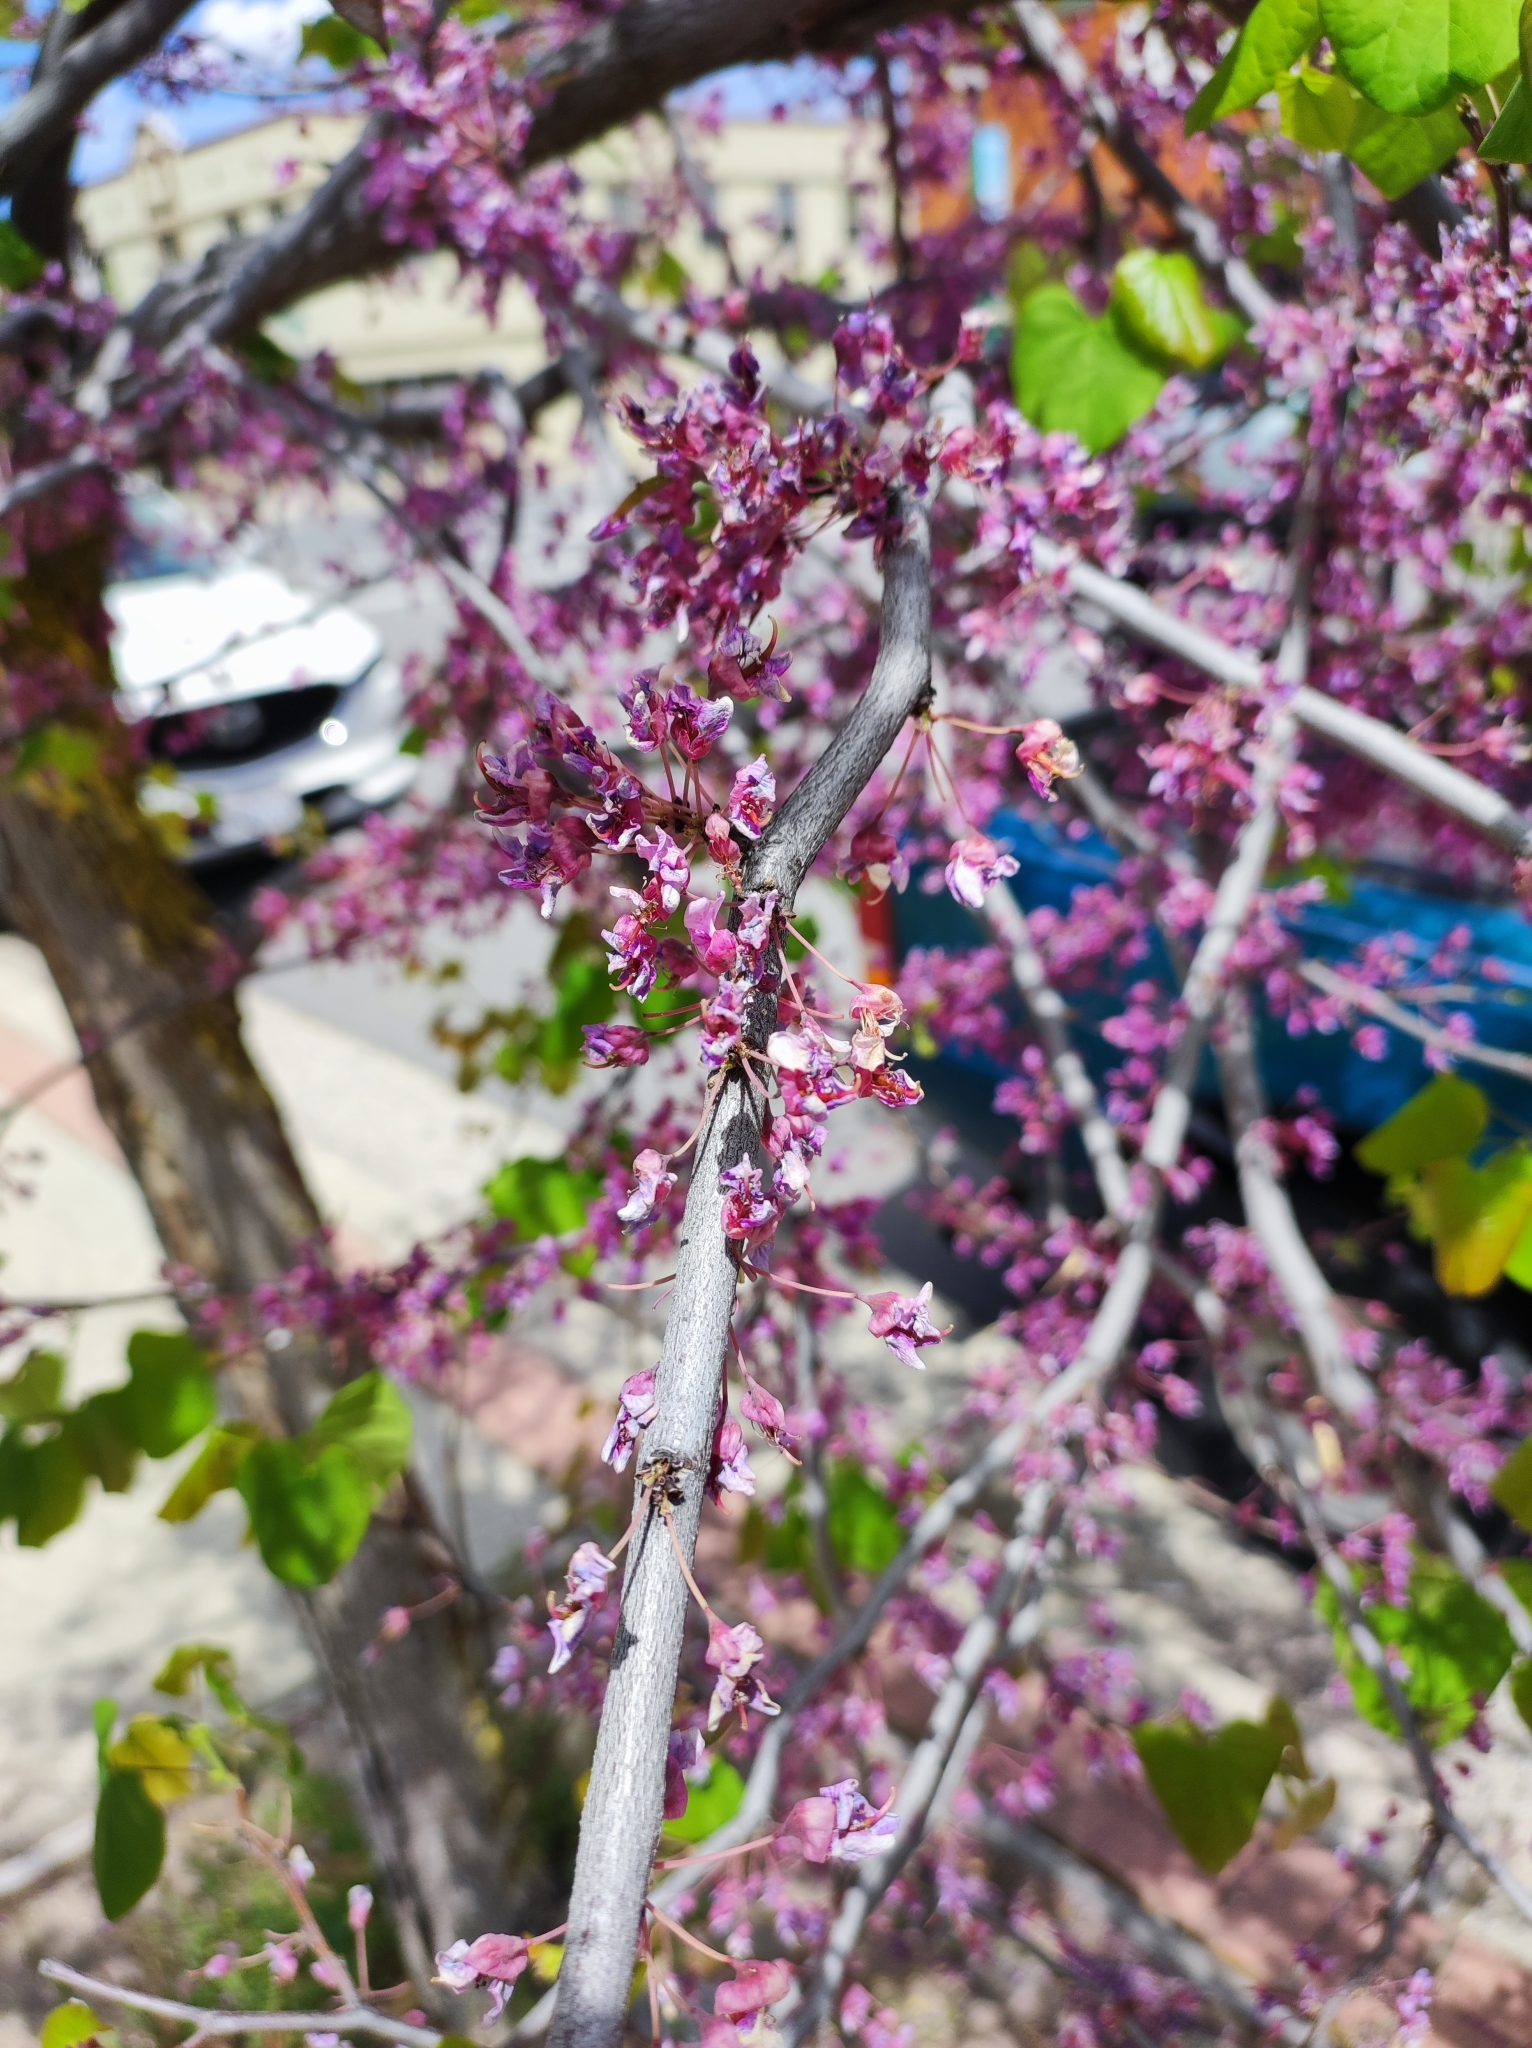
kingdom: Plantae
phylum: Tracheophyta
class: Magnoliopsida
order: Fabales
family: Fabaceae
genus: Cercis
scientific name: Cercis occidentalis
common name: California redbud
